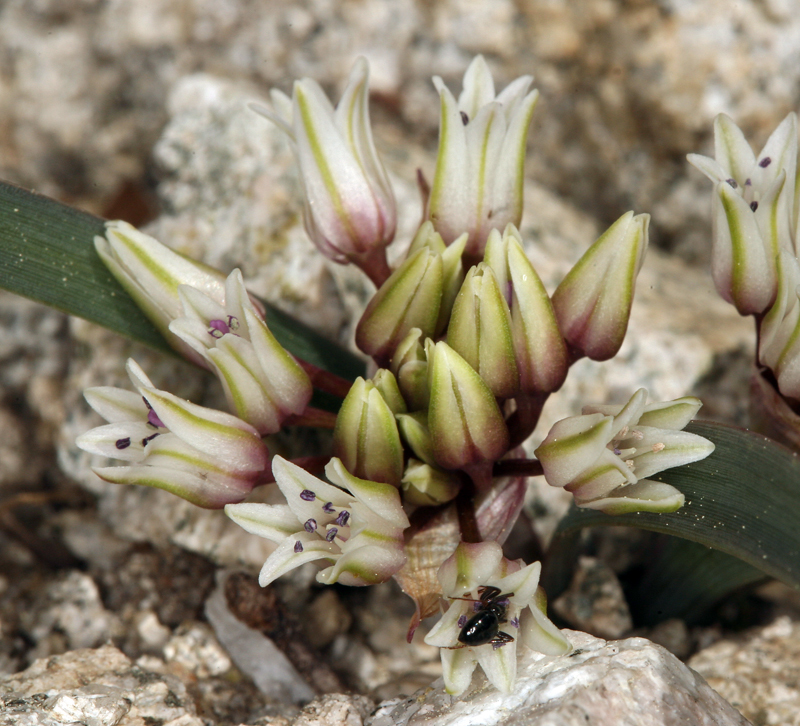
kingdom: Plantae
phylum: Tracheophyta
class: Liliopsida
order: Asparagales
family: Amaryllidaceae
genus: Allium
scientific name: Allium siskiyouense
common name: Siskiyou onion
